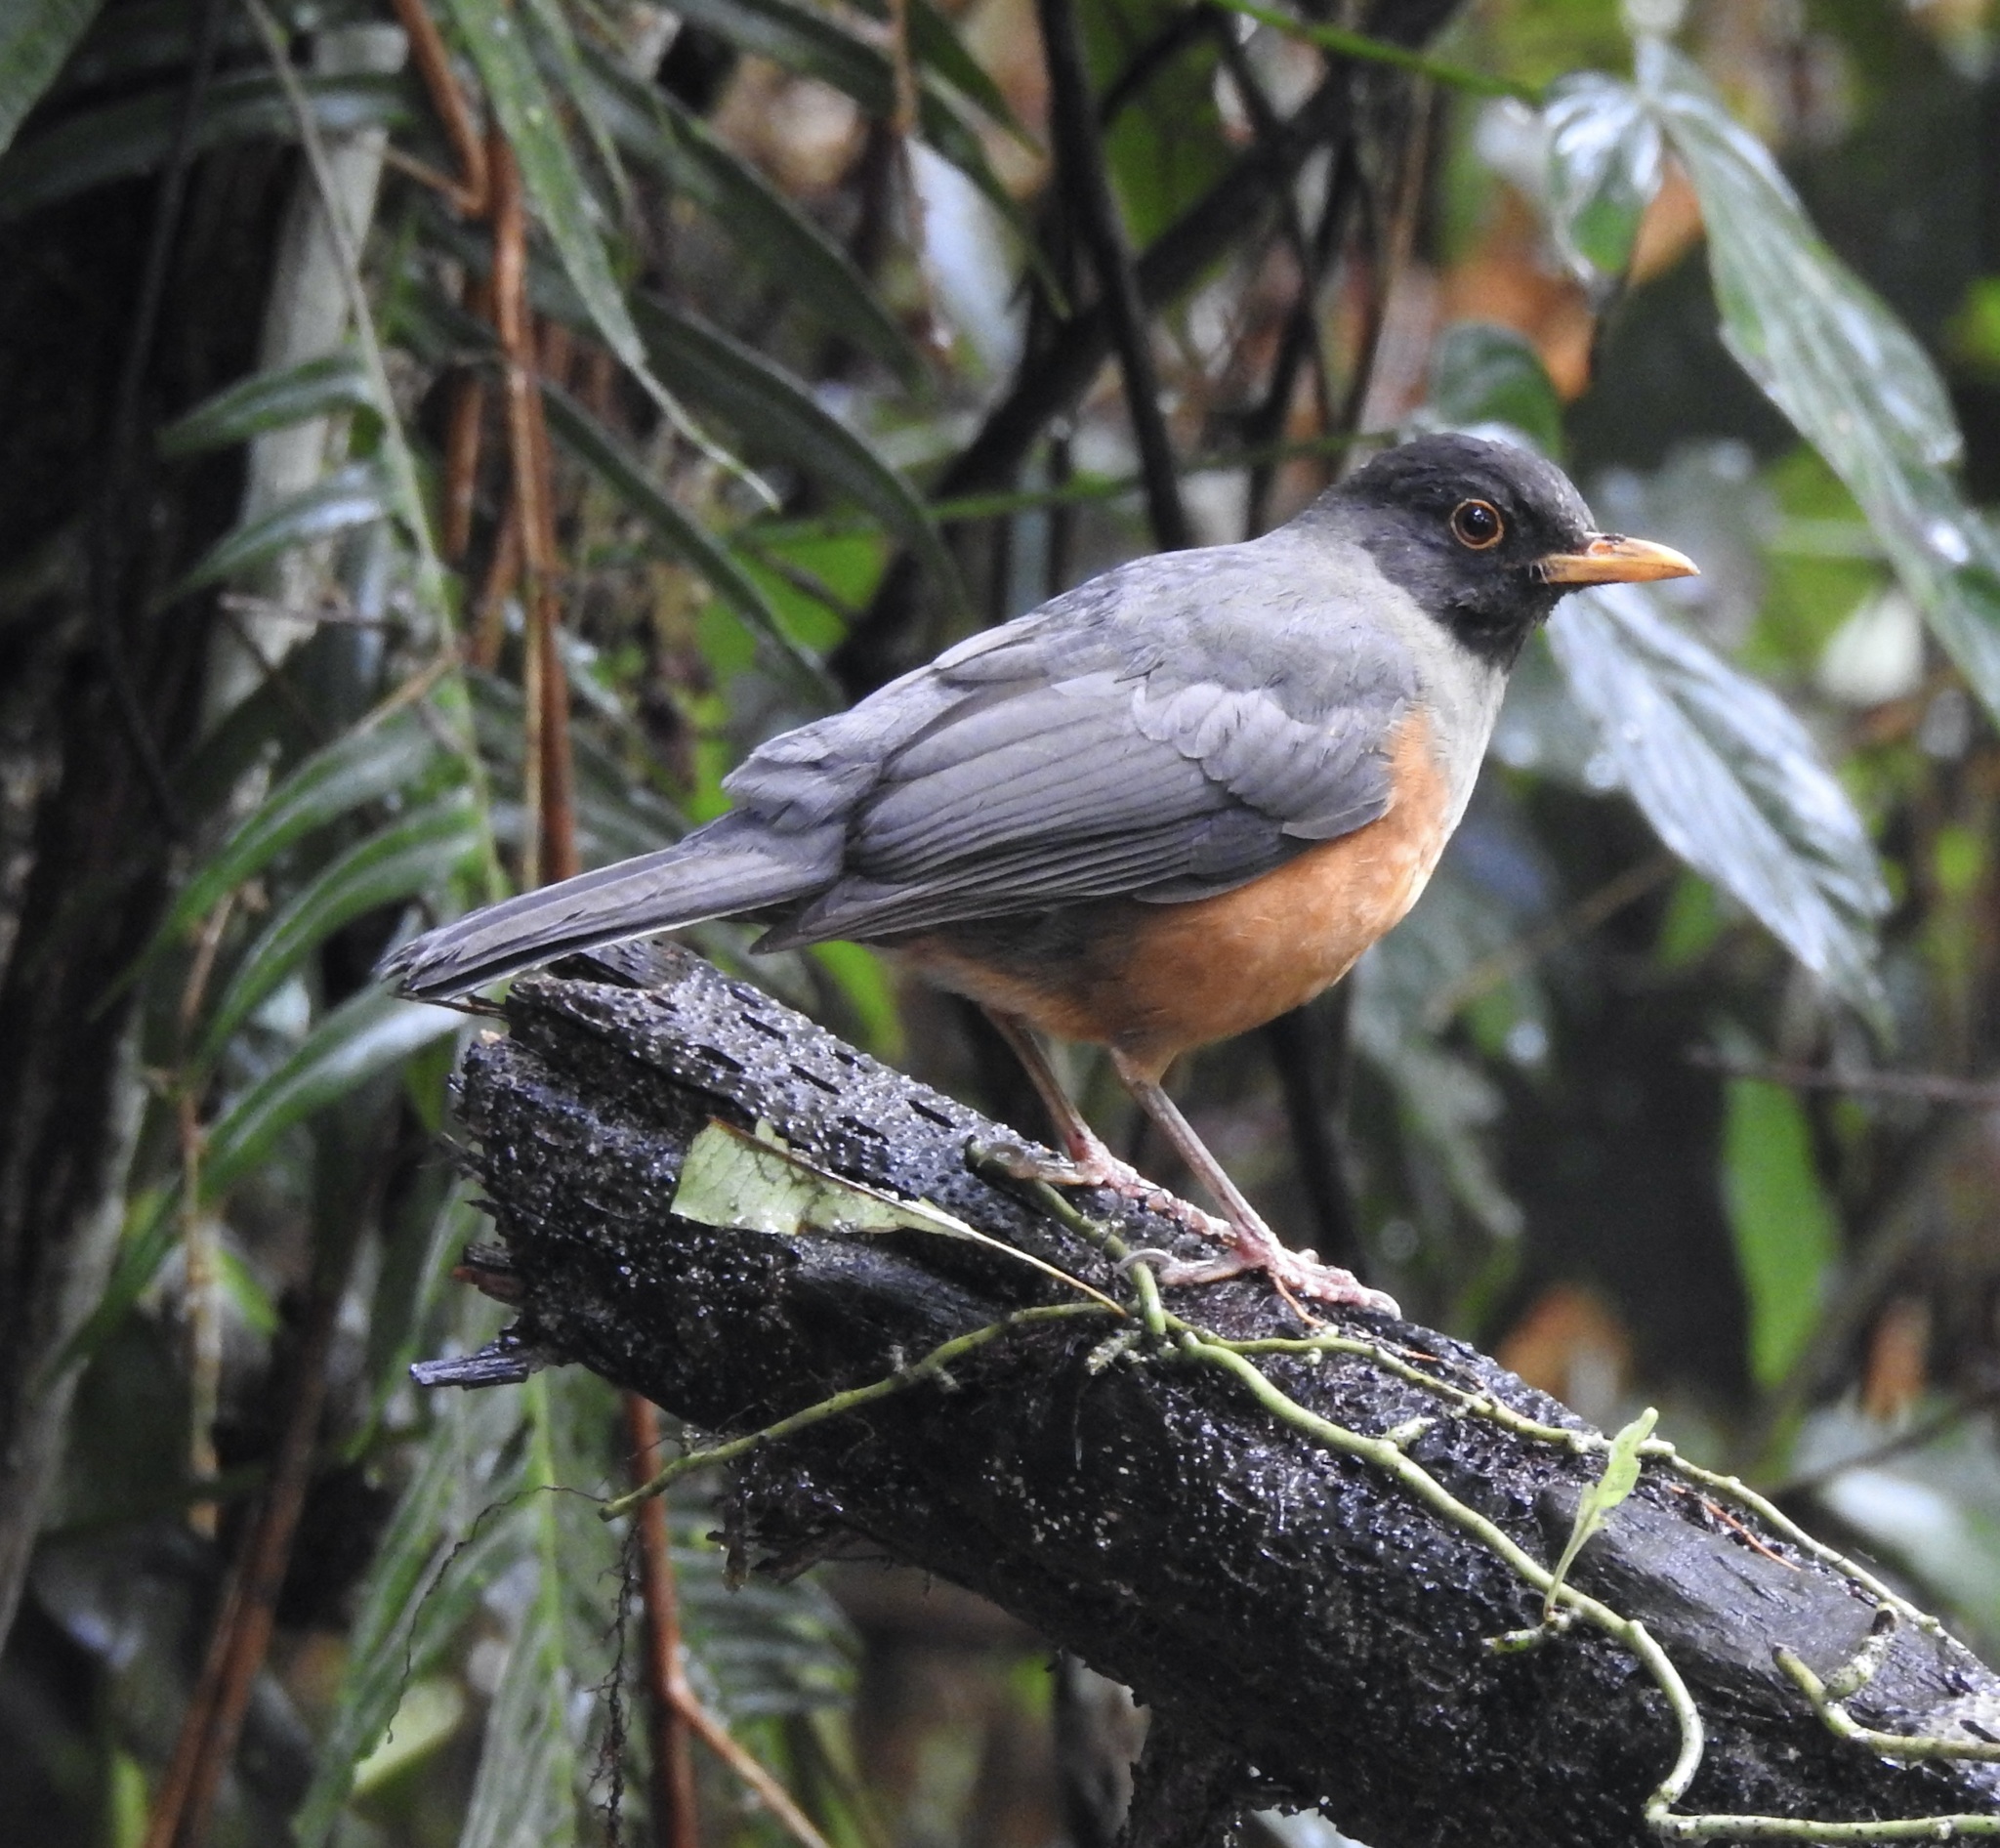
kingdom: Animalia
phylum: Chordata
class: Aves
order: Passeriformes
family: Turdidae
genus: Turdus
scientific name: Turdus fulviventris
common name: Chestnut-bellied thrush
